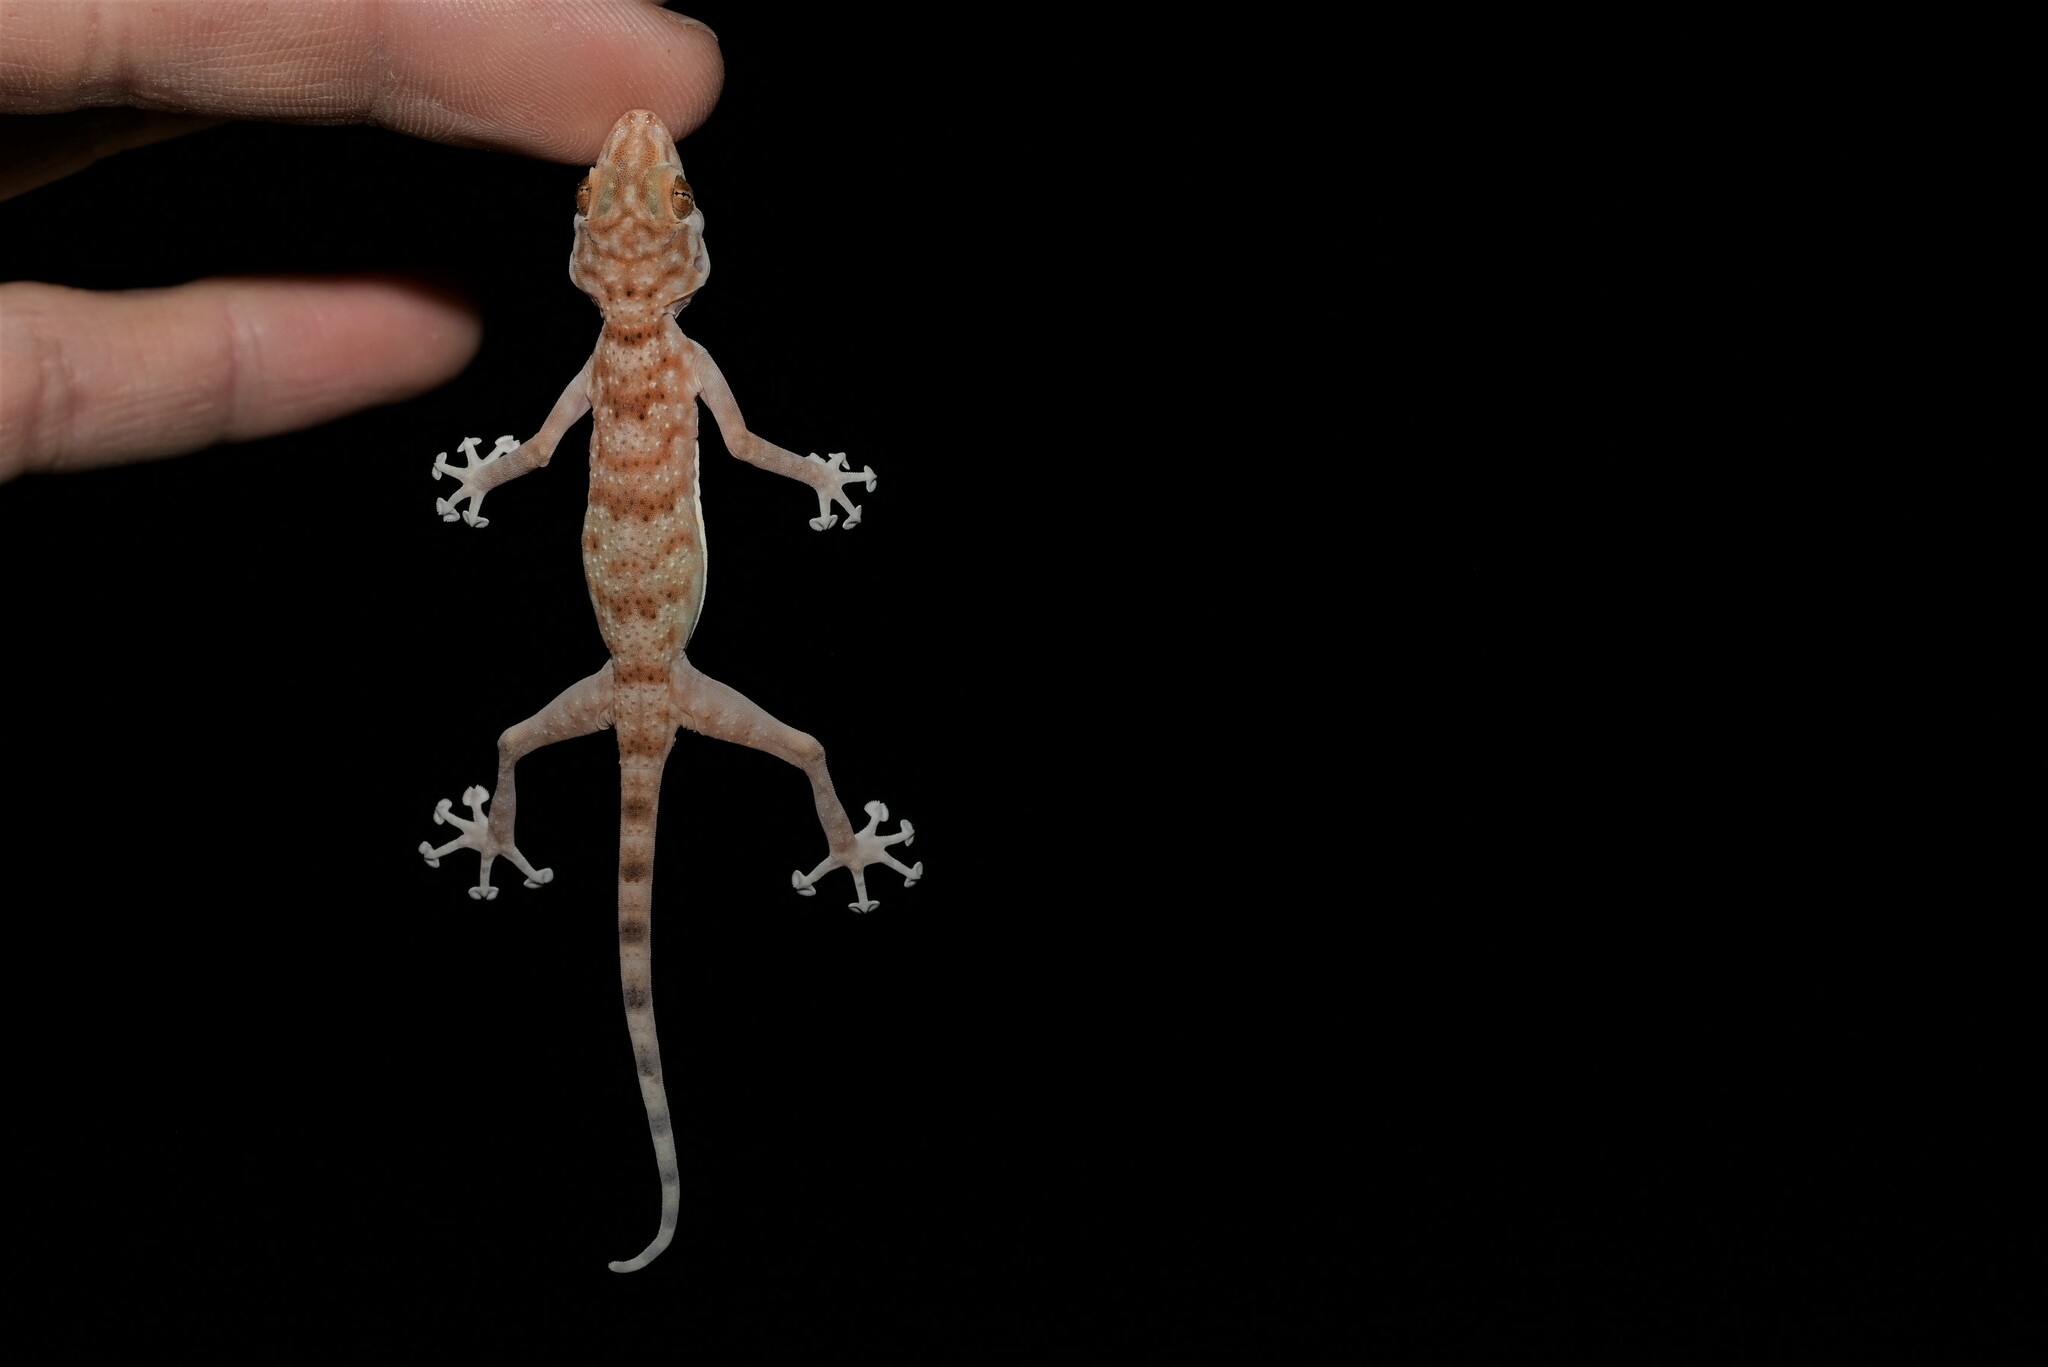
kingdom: Animalia
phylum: Chordata
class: Squamata
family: Phyllodactylidae
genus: Ptyodactylus
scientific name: Ptyodactylus hasselquistii
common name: Hasselquist’s fan-footed gecko
